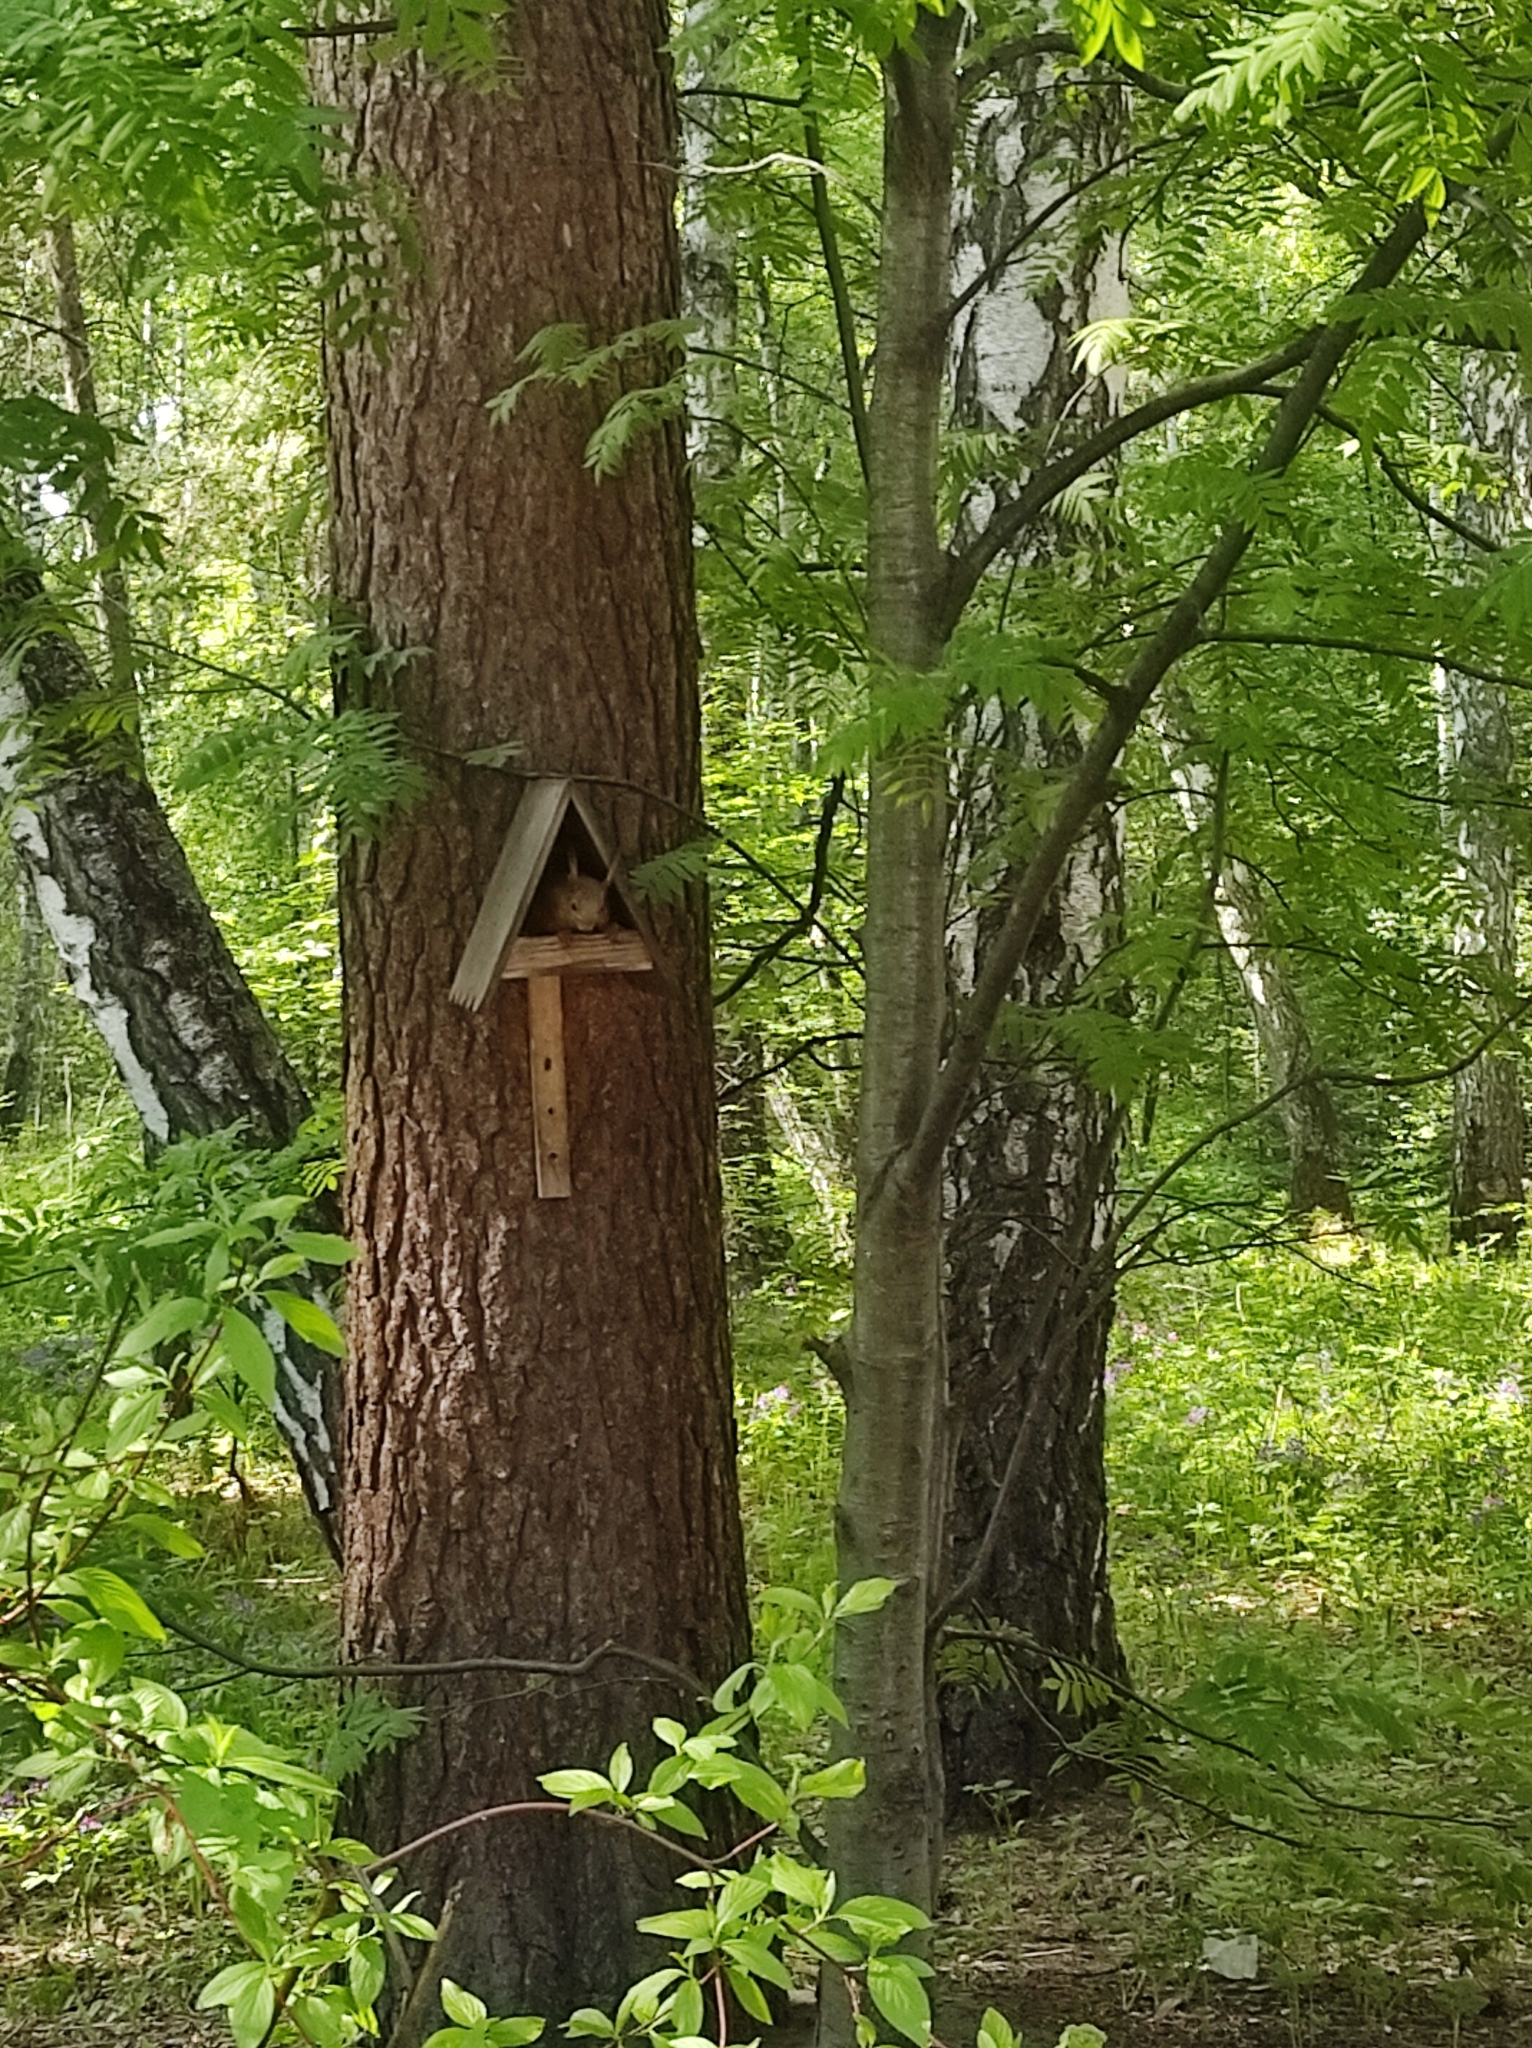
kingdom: Animalia
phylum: Chordata
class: Mammalia
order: Rodentia
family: Sciuridae
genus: Sciurus
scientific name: Sciurus vulgaris
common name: Eurasian red squirrel
